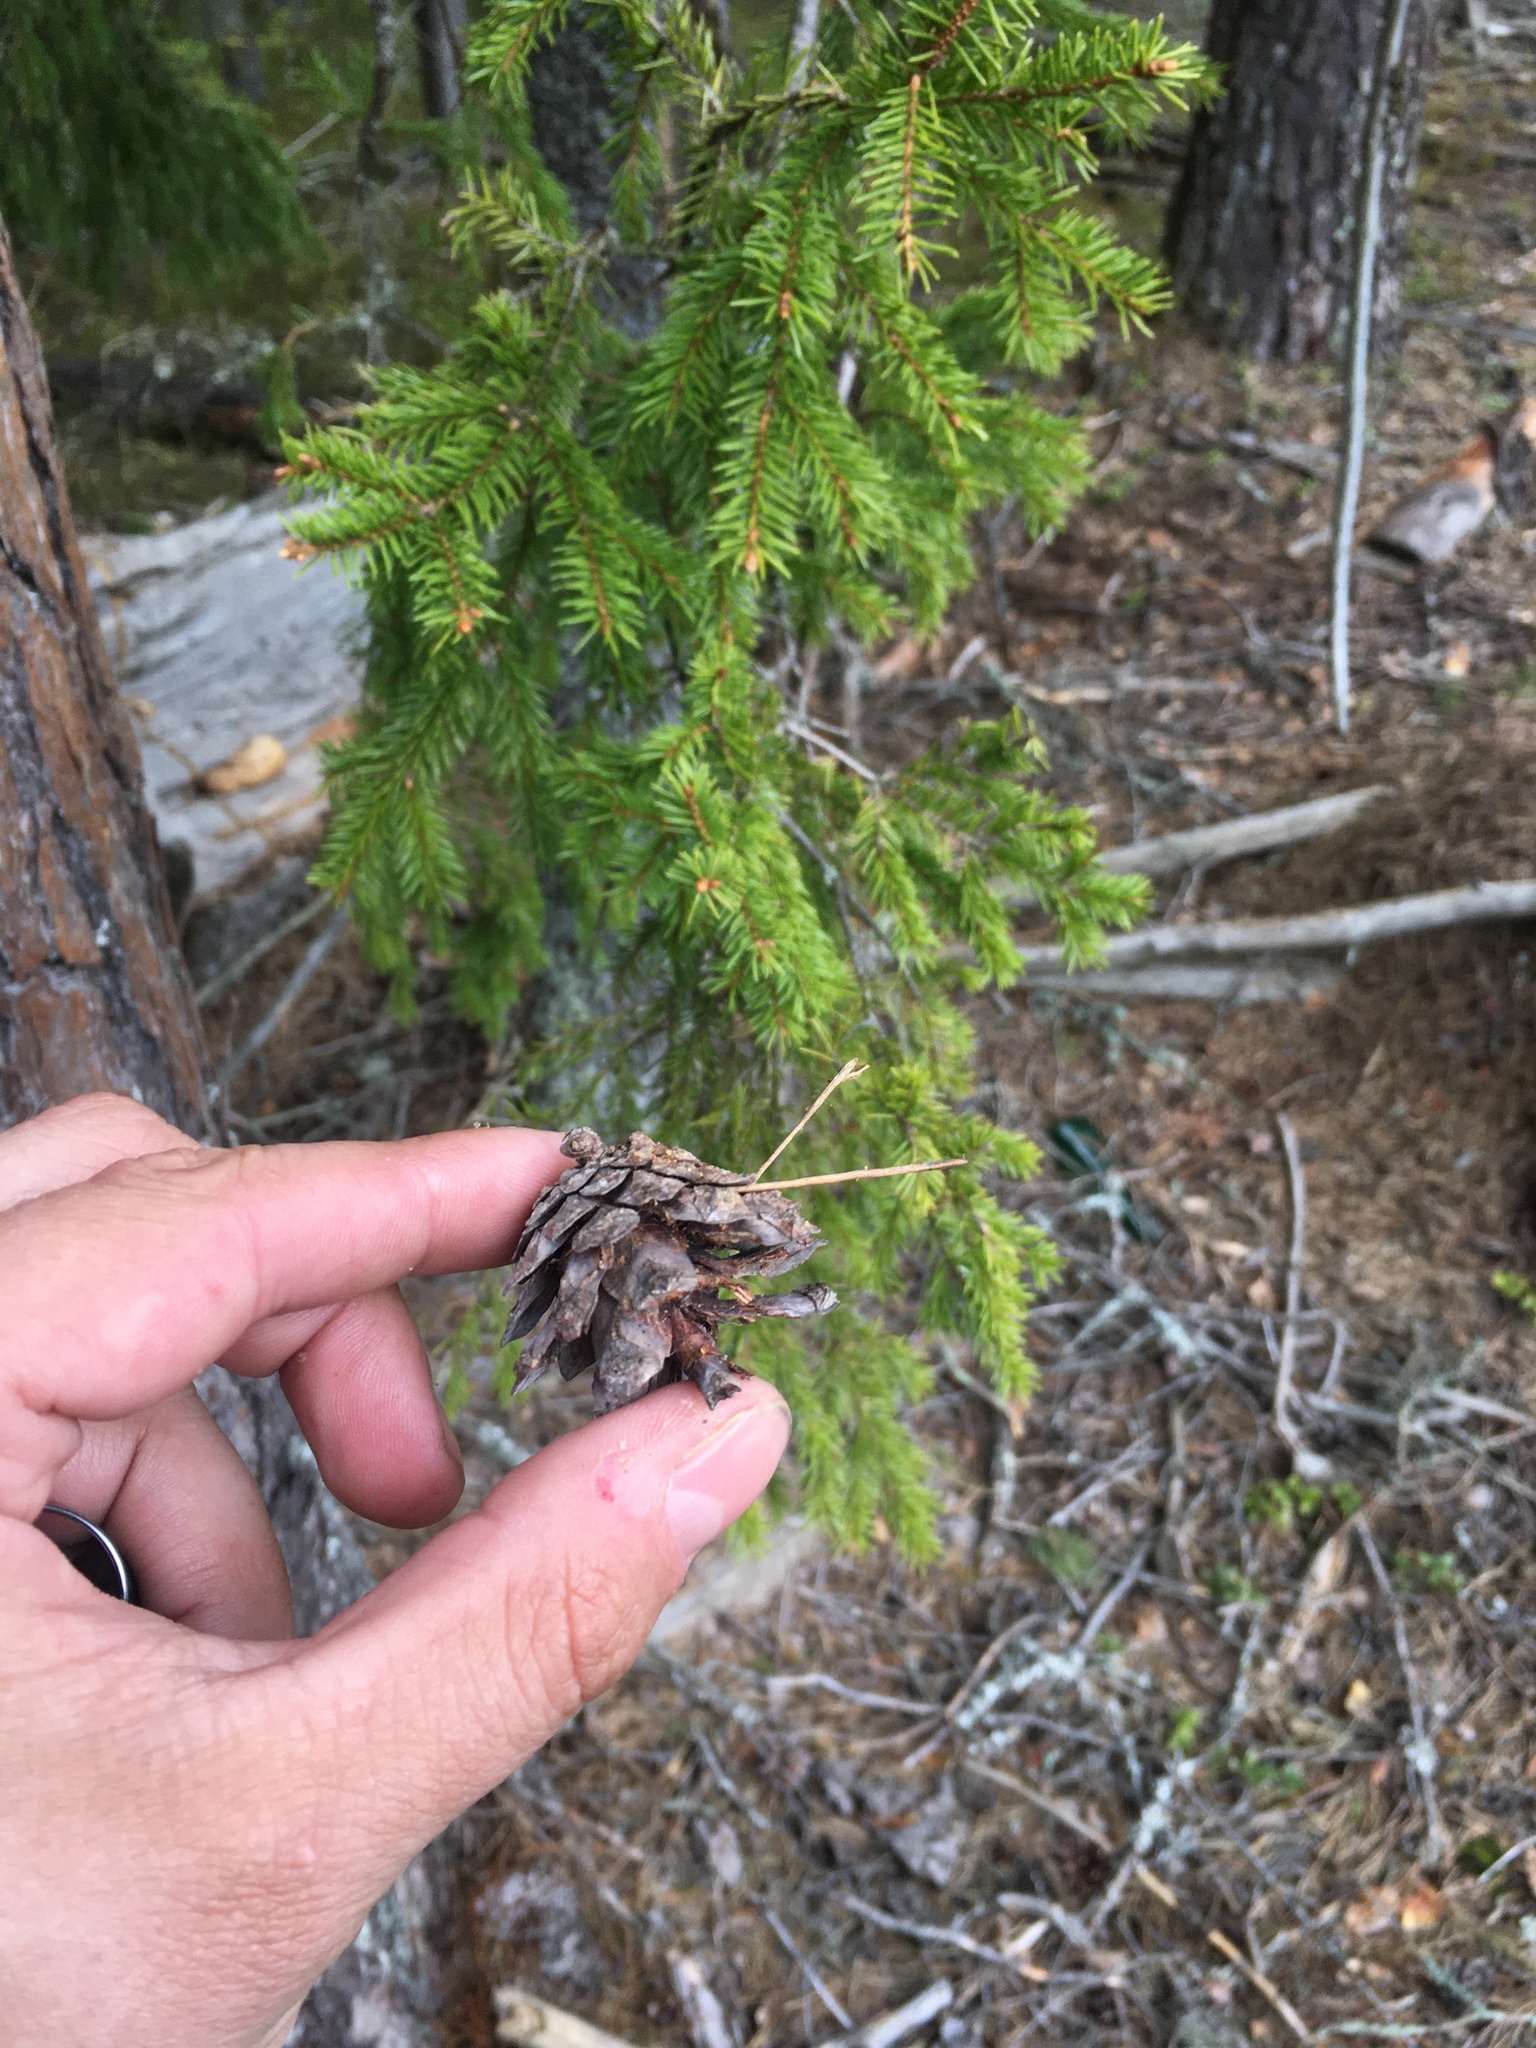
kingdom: Plantae
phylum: Tracheophyta
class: Pinopsida
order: Pinales
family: Pinaceae
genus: Picea
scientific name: Picea abies
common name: Norway spruce
